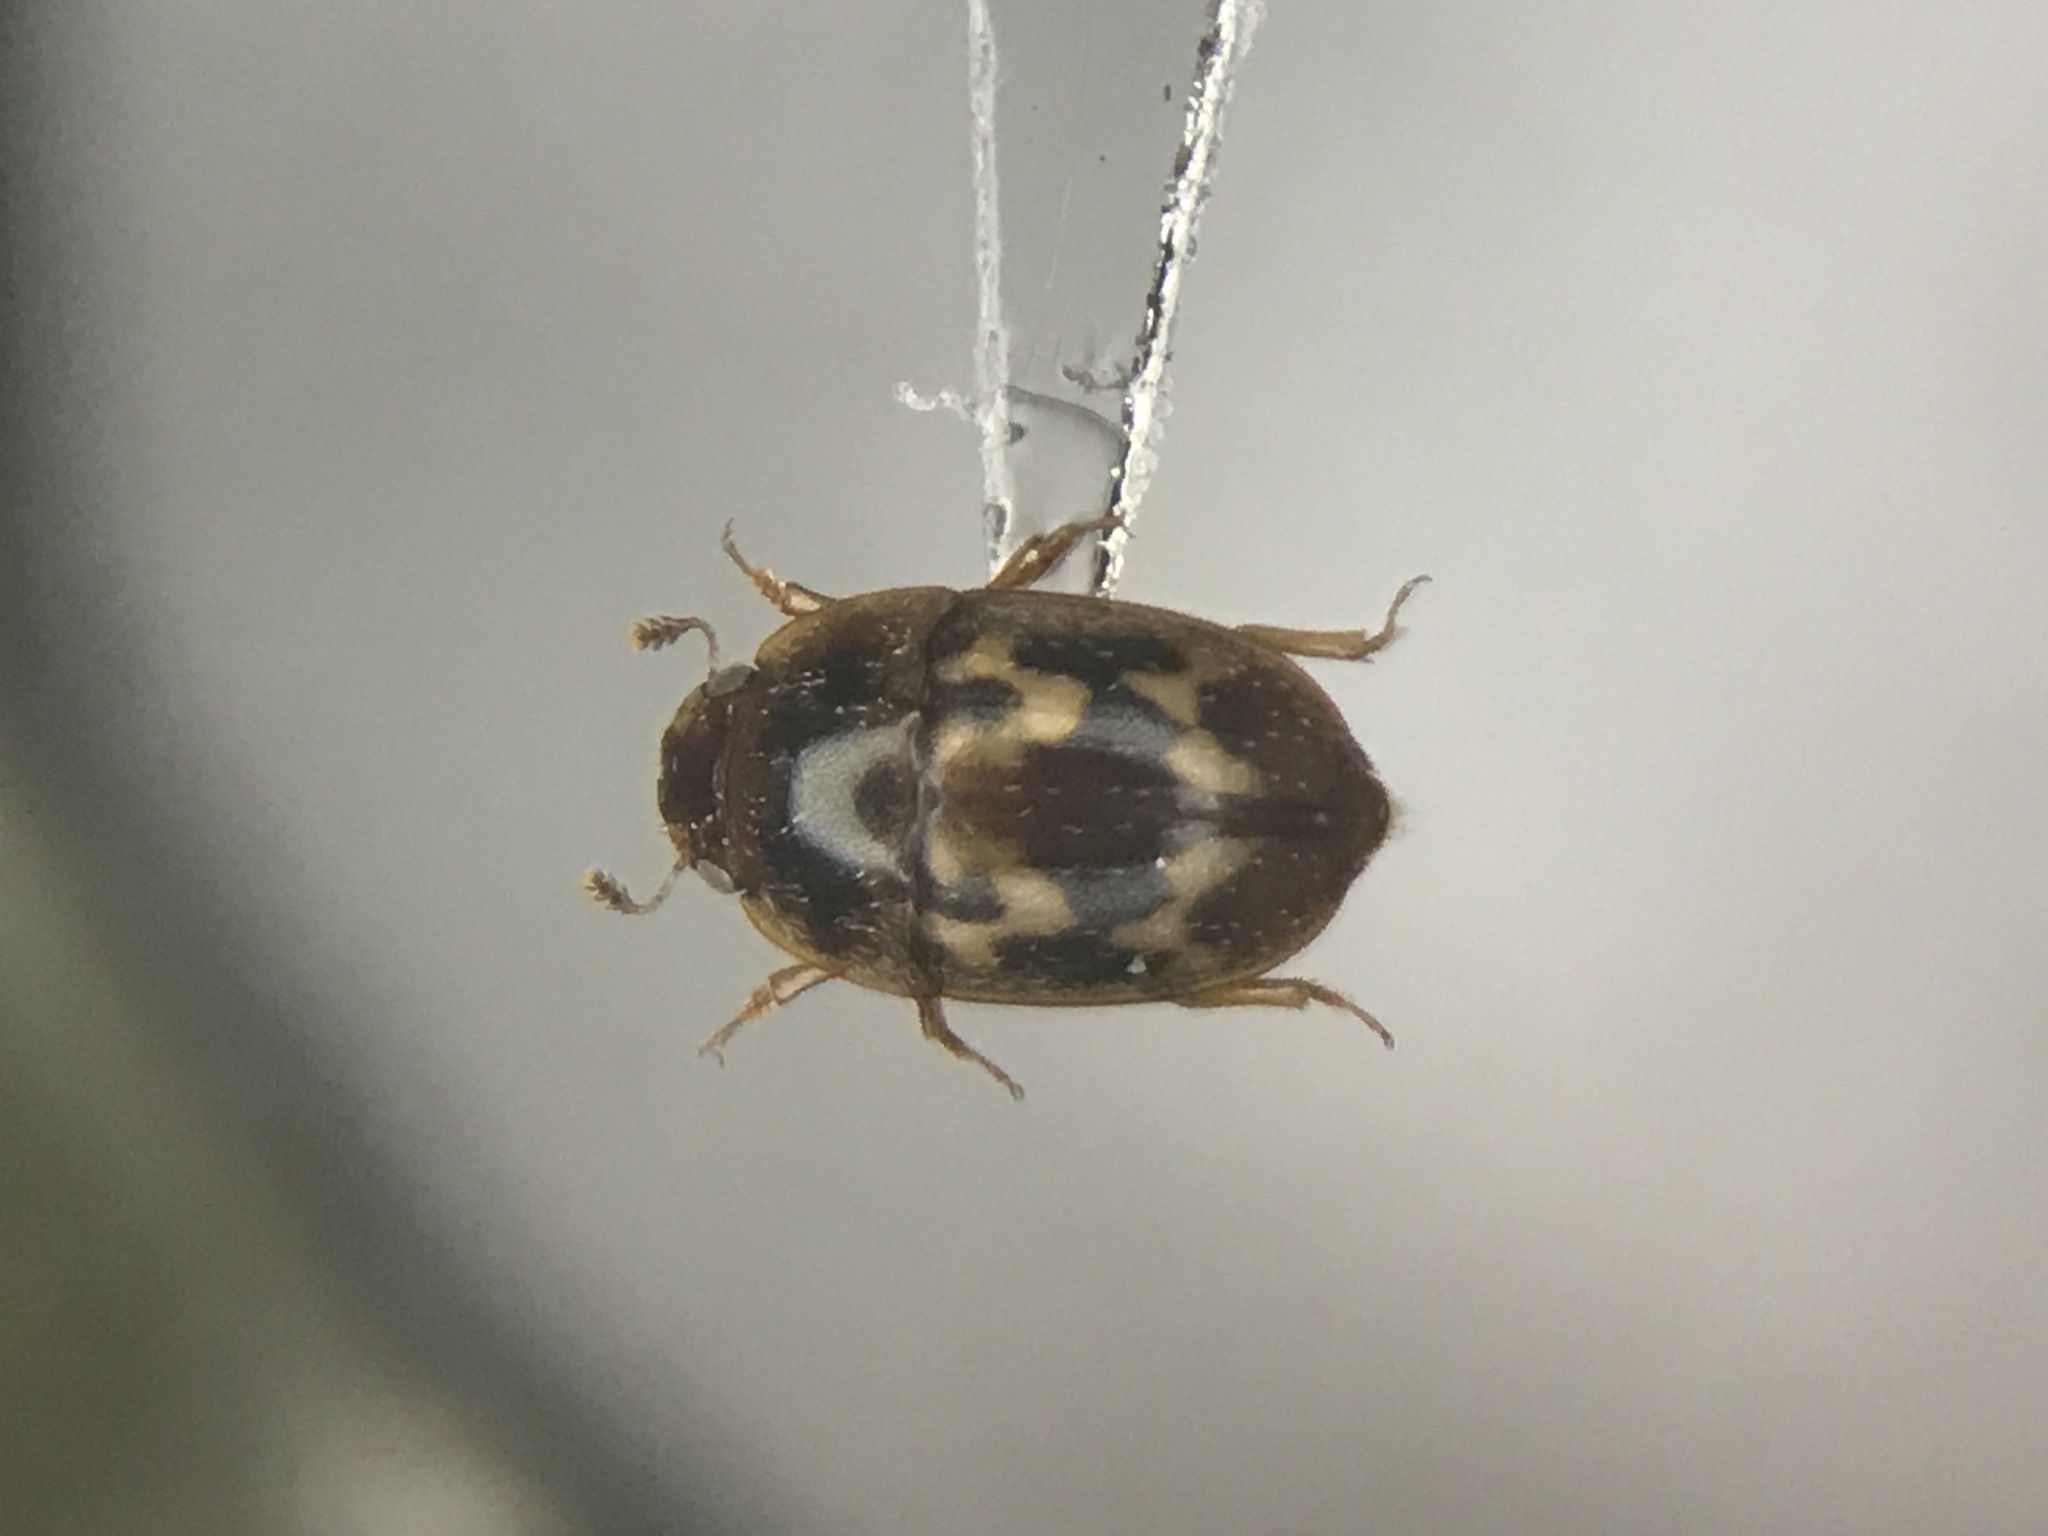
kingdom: Animalia
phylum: Arthropoda
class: Insecta
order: Coleoptera
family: Nitidulidae
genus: Cryptarcha
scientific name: Cryptarcha strigatula
